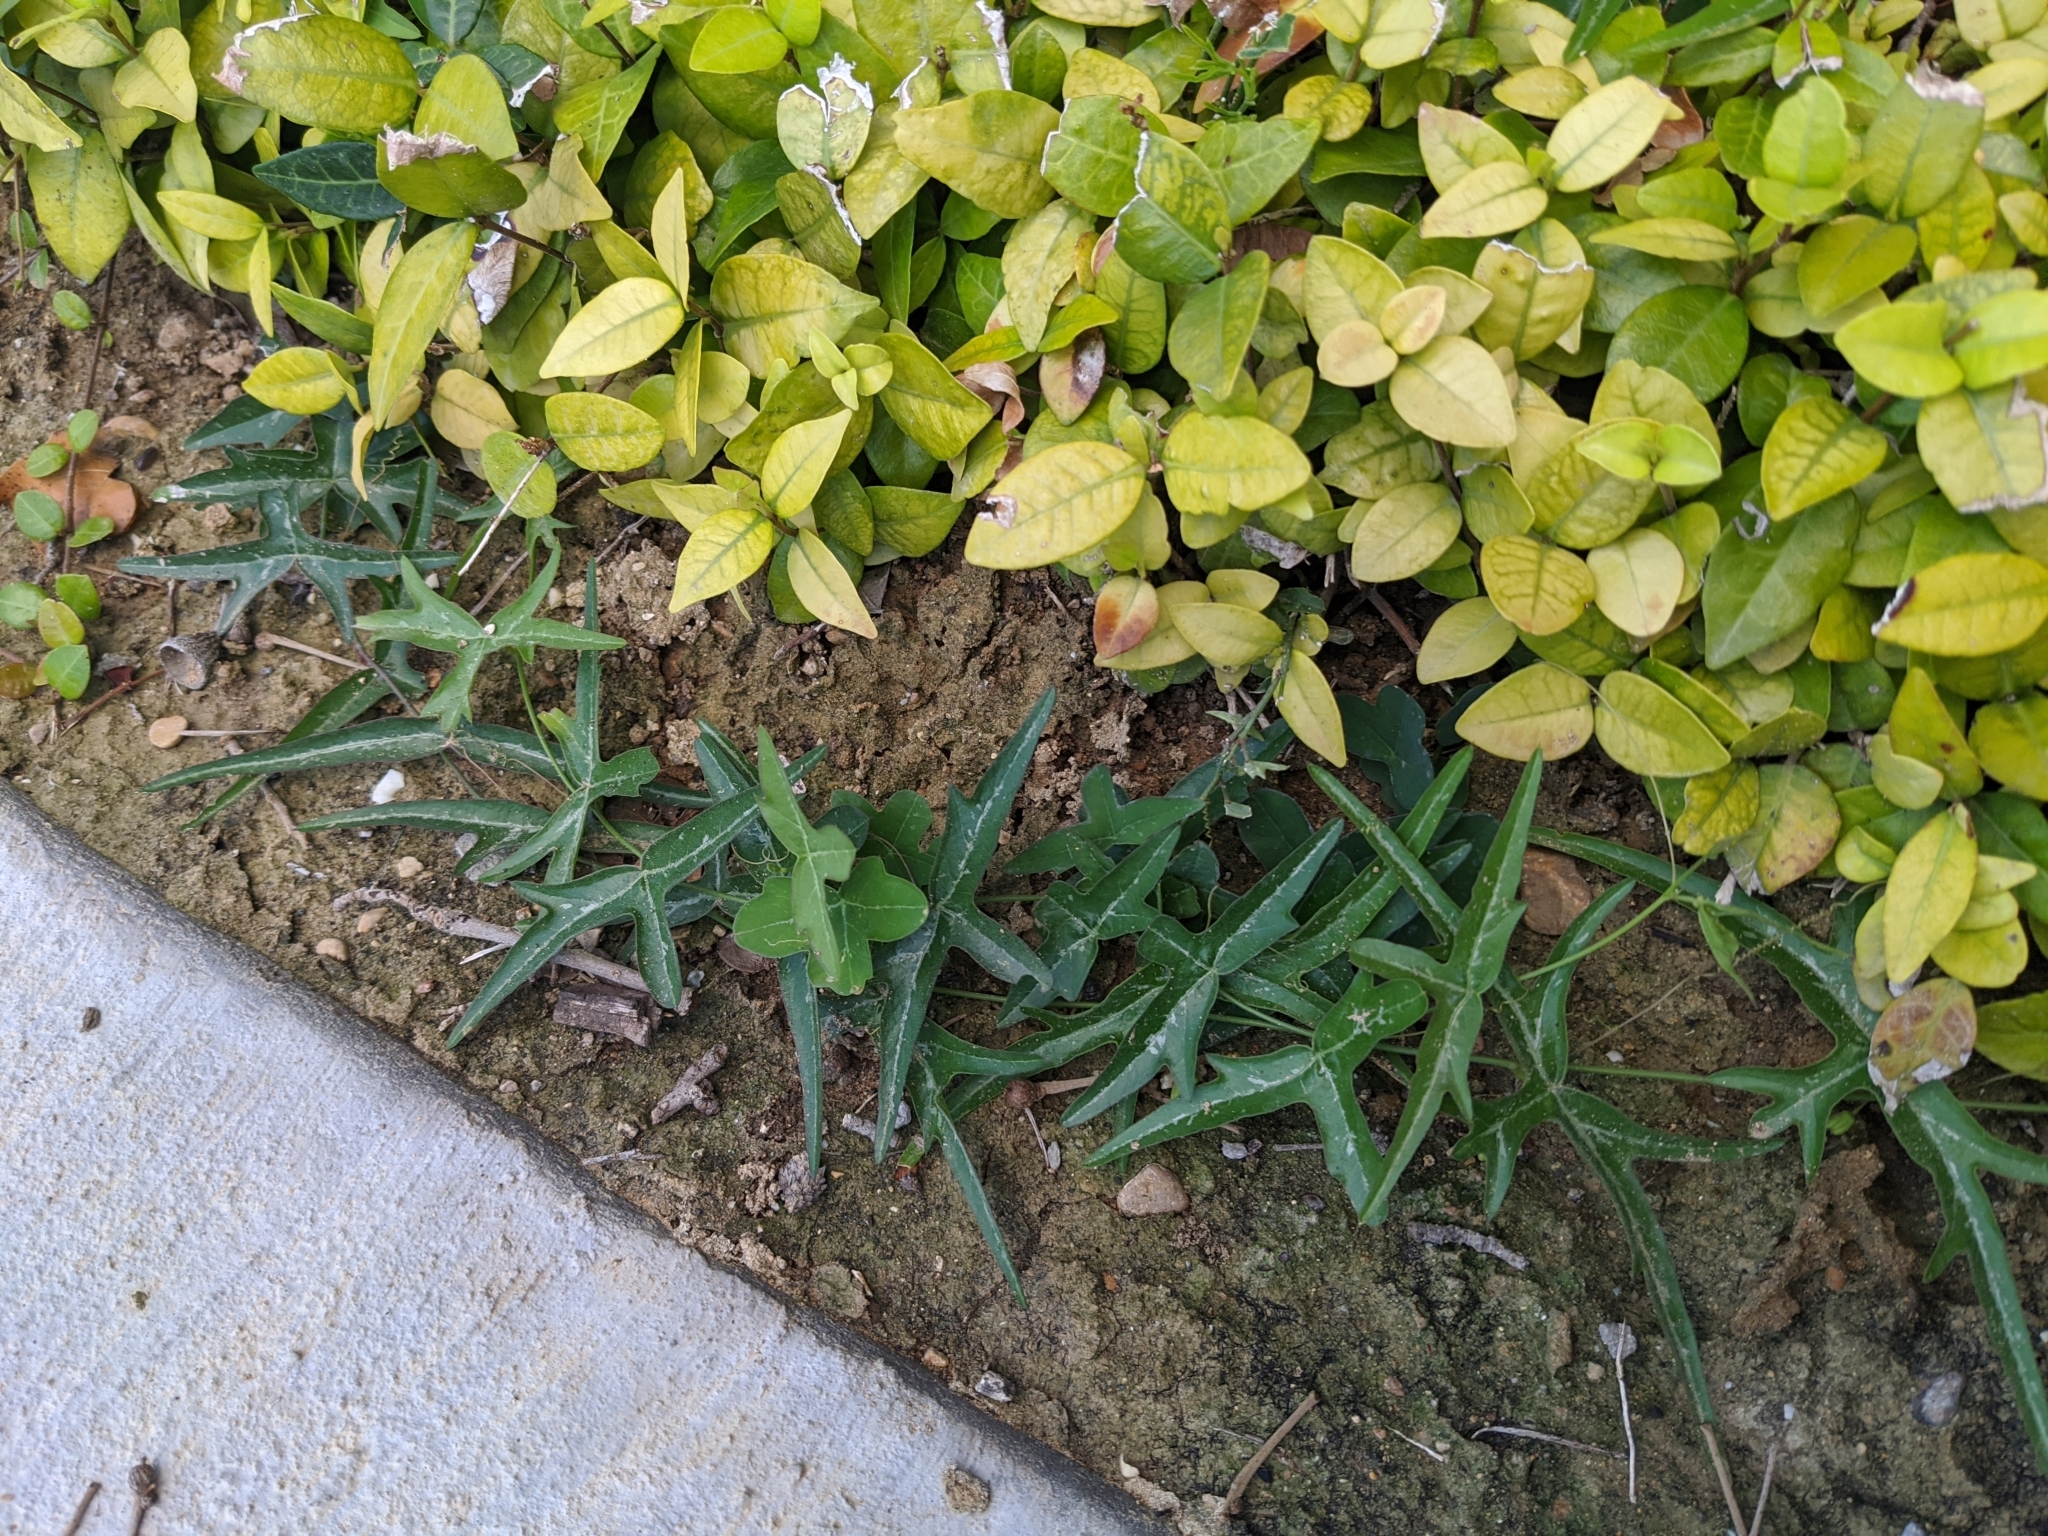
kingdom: Plantae
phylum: Tracheophyta
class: Magnoliopsida
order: Malpighiales
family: Passifloraceae
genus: Passiflora
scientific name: Passiflora tenuiloba
